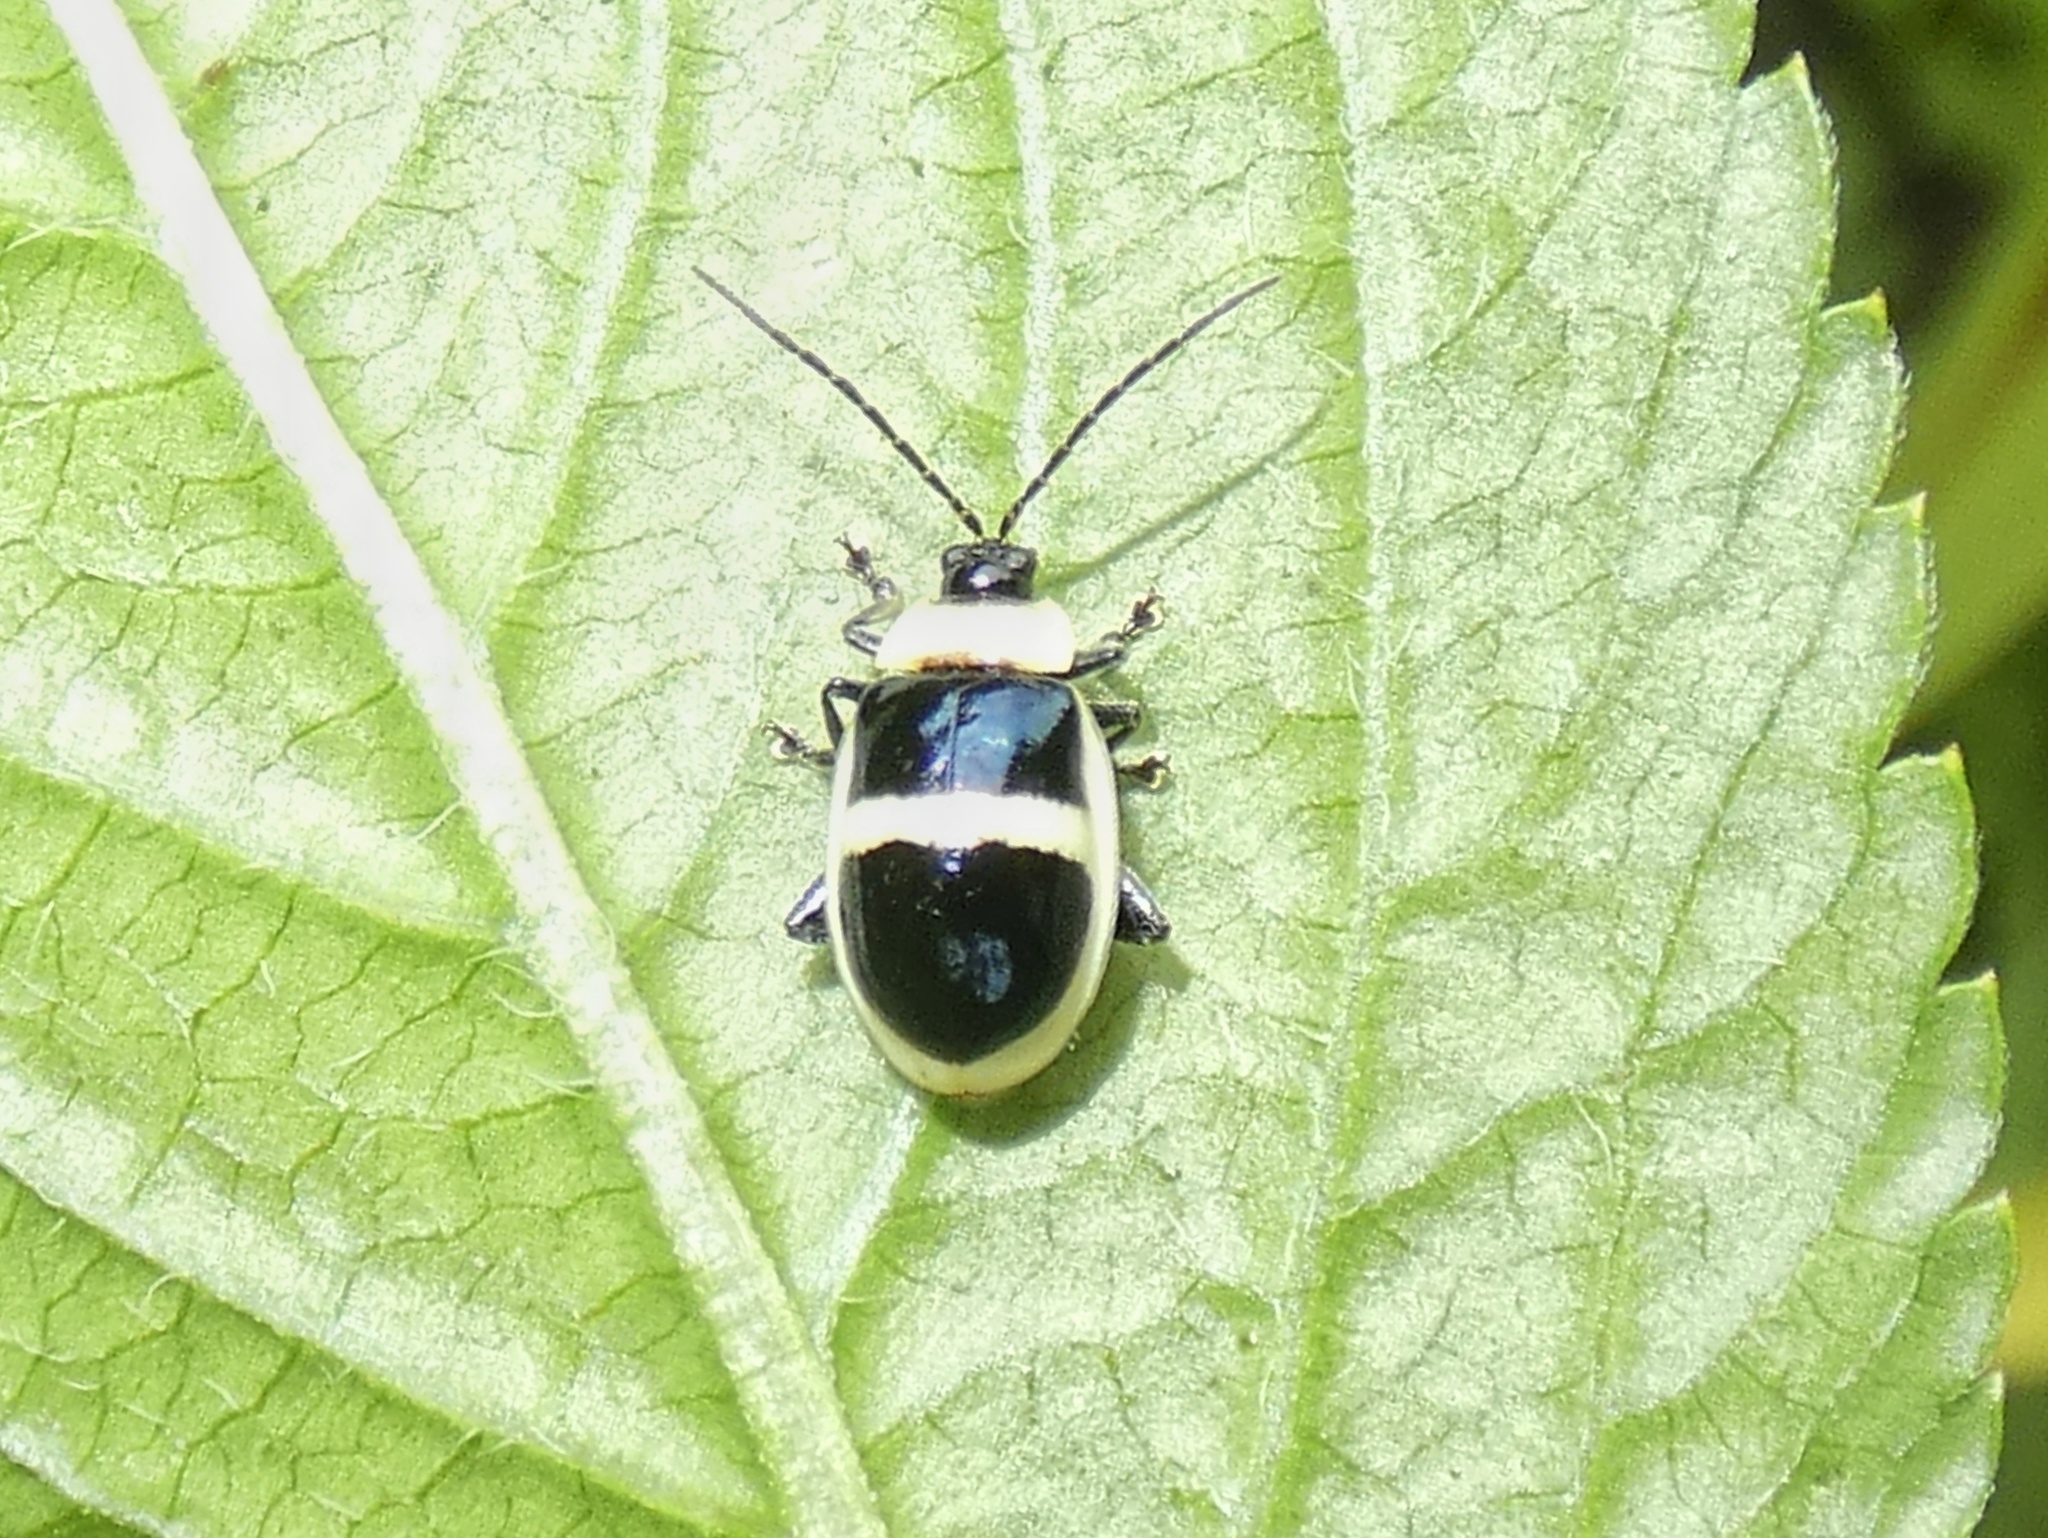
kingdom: Animalia
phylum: Arthropoda
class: Insecta
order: Coleoptera
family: Chrysomelidae
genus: Asphaera
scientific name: Asphaera
